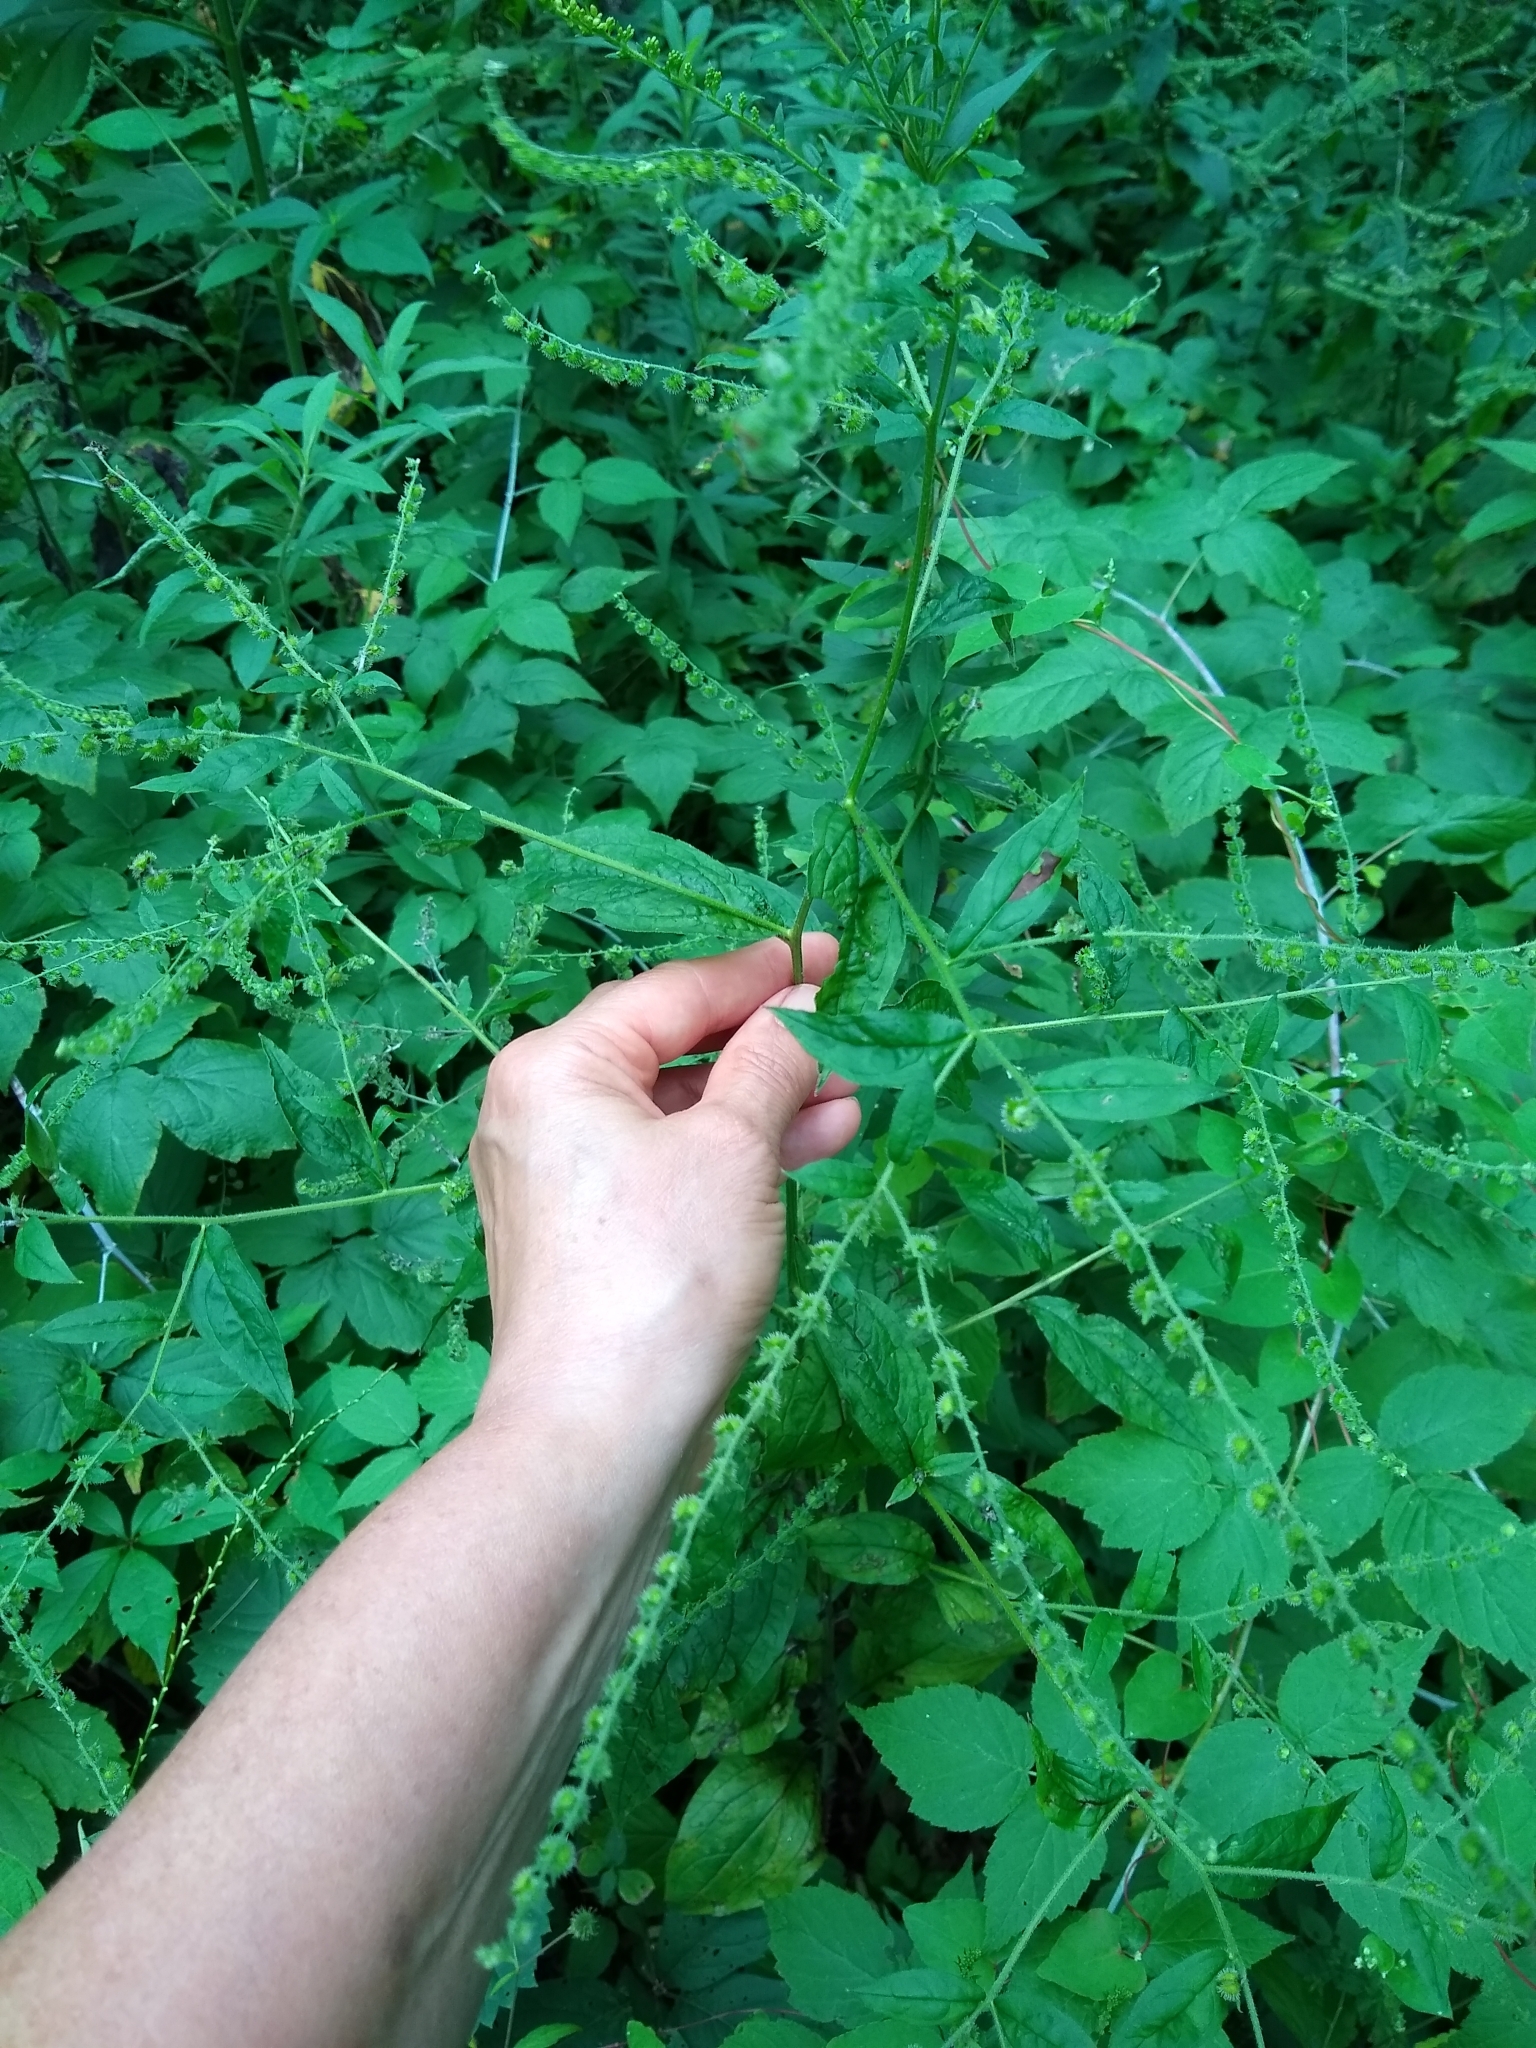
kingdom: Plantae
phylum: Tracheophyta
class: Magnoliopsida
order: Boraginales
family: Boraginaceae
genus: Hackelia
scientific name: Hackelia virginiana
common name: Beggar's-lice
